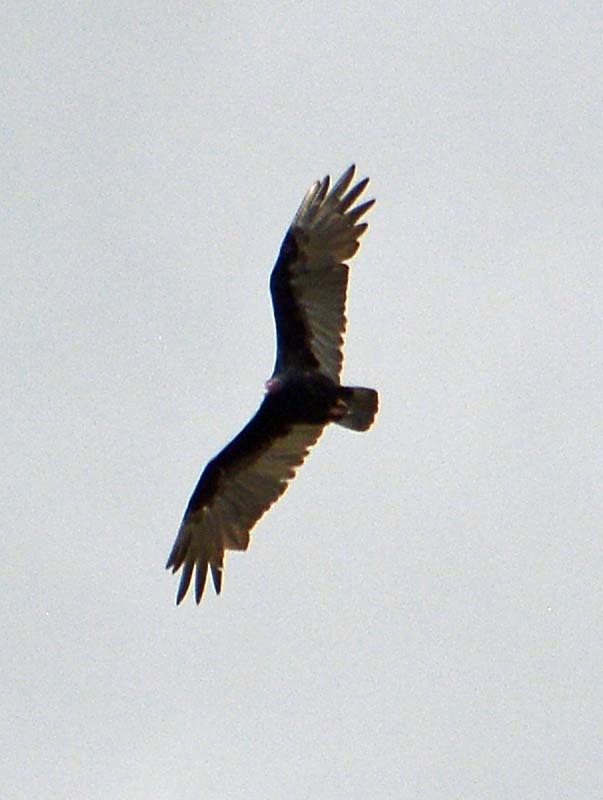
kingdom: Animalia
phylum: Chordata
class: Aves
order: Accipitriformes
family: Cathartidae
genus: Cathartes
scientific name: Cathartes aura
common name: Turkey vulture
